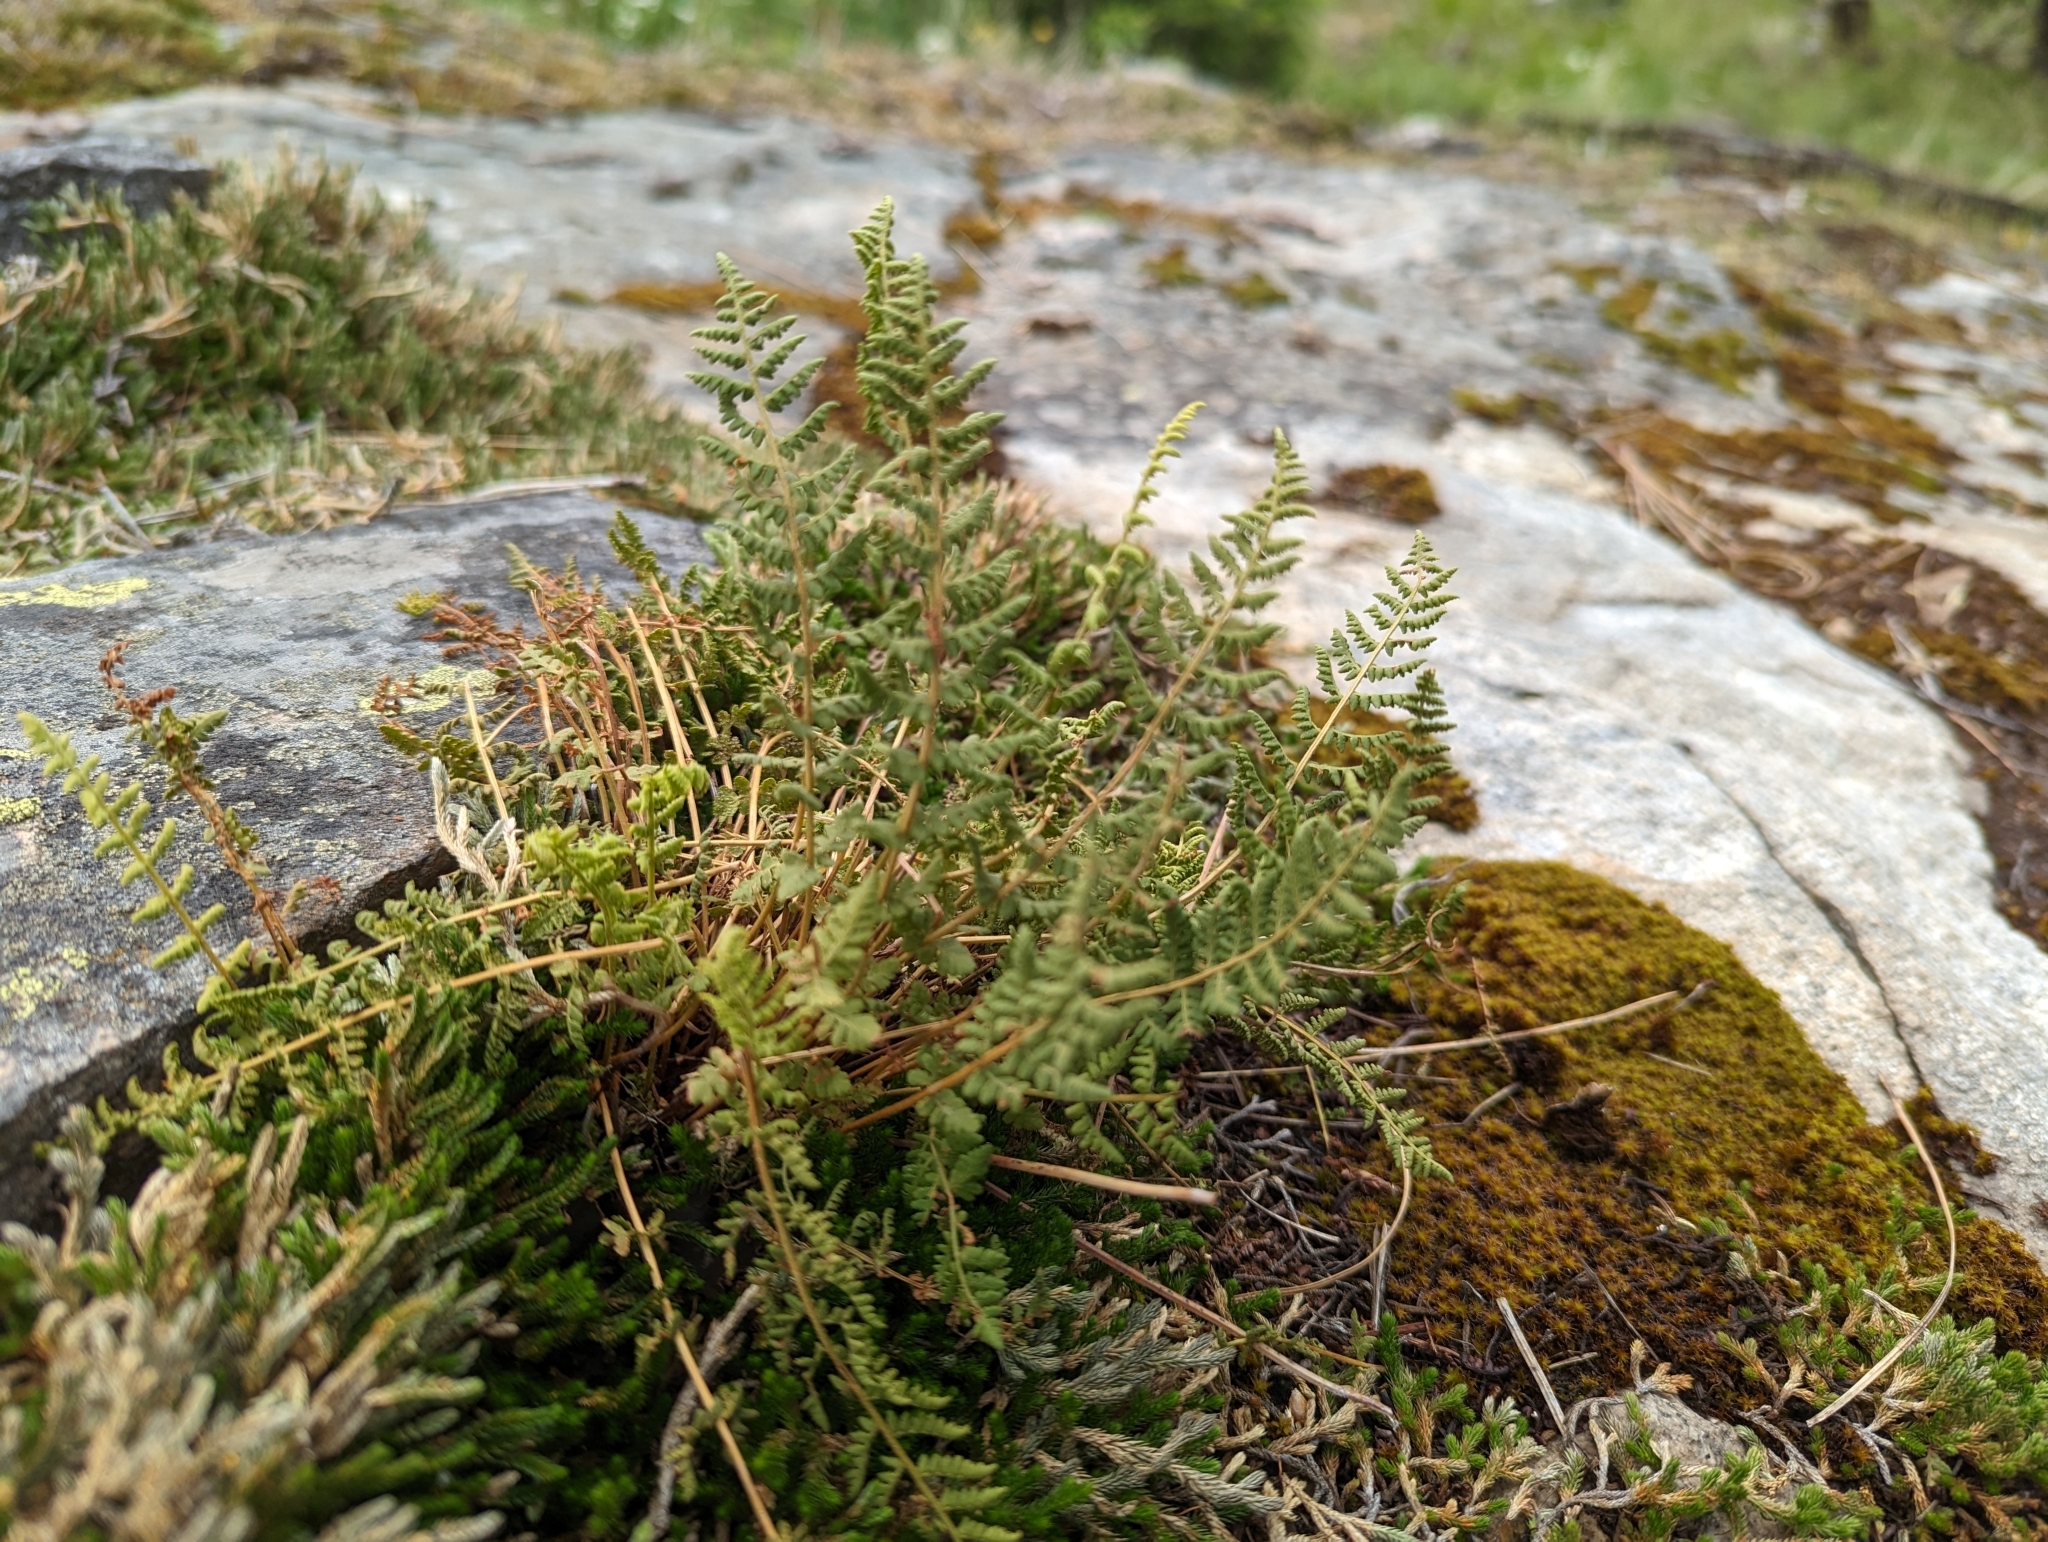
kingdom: Plantae
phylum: Tracheophyta
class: Polypodiopsida
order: Polypodiales
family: Woodsiaceae
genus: Physematium
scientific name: Physematium scopulinum
